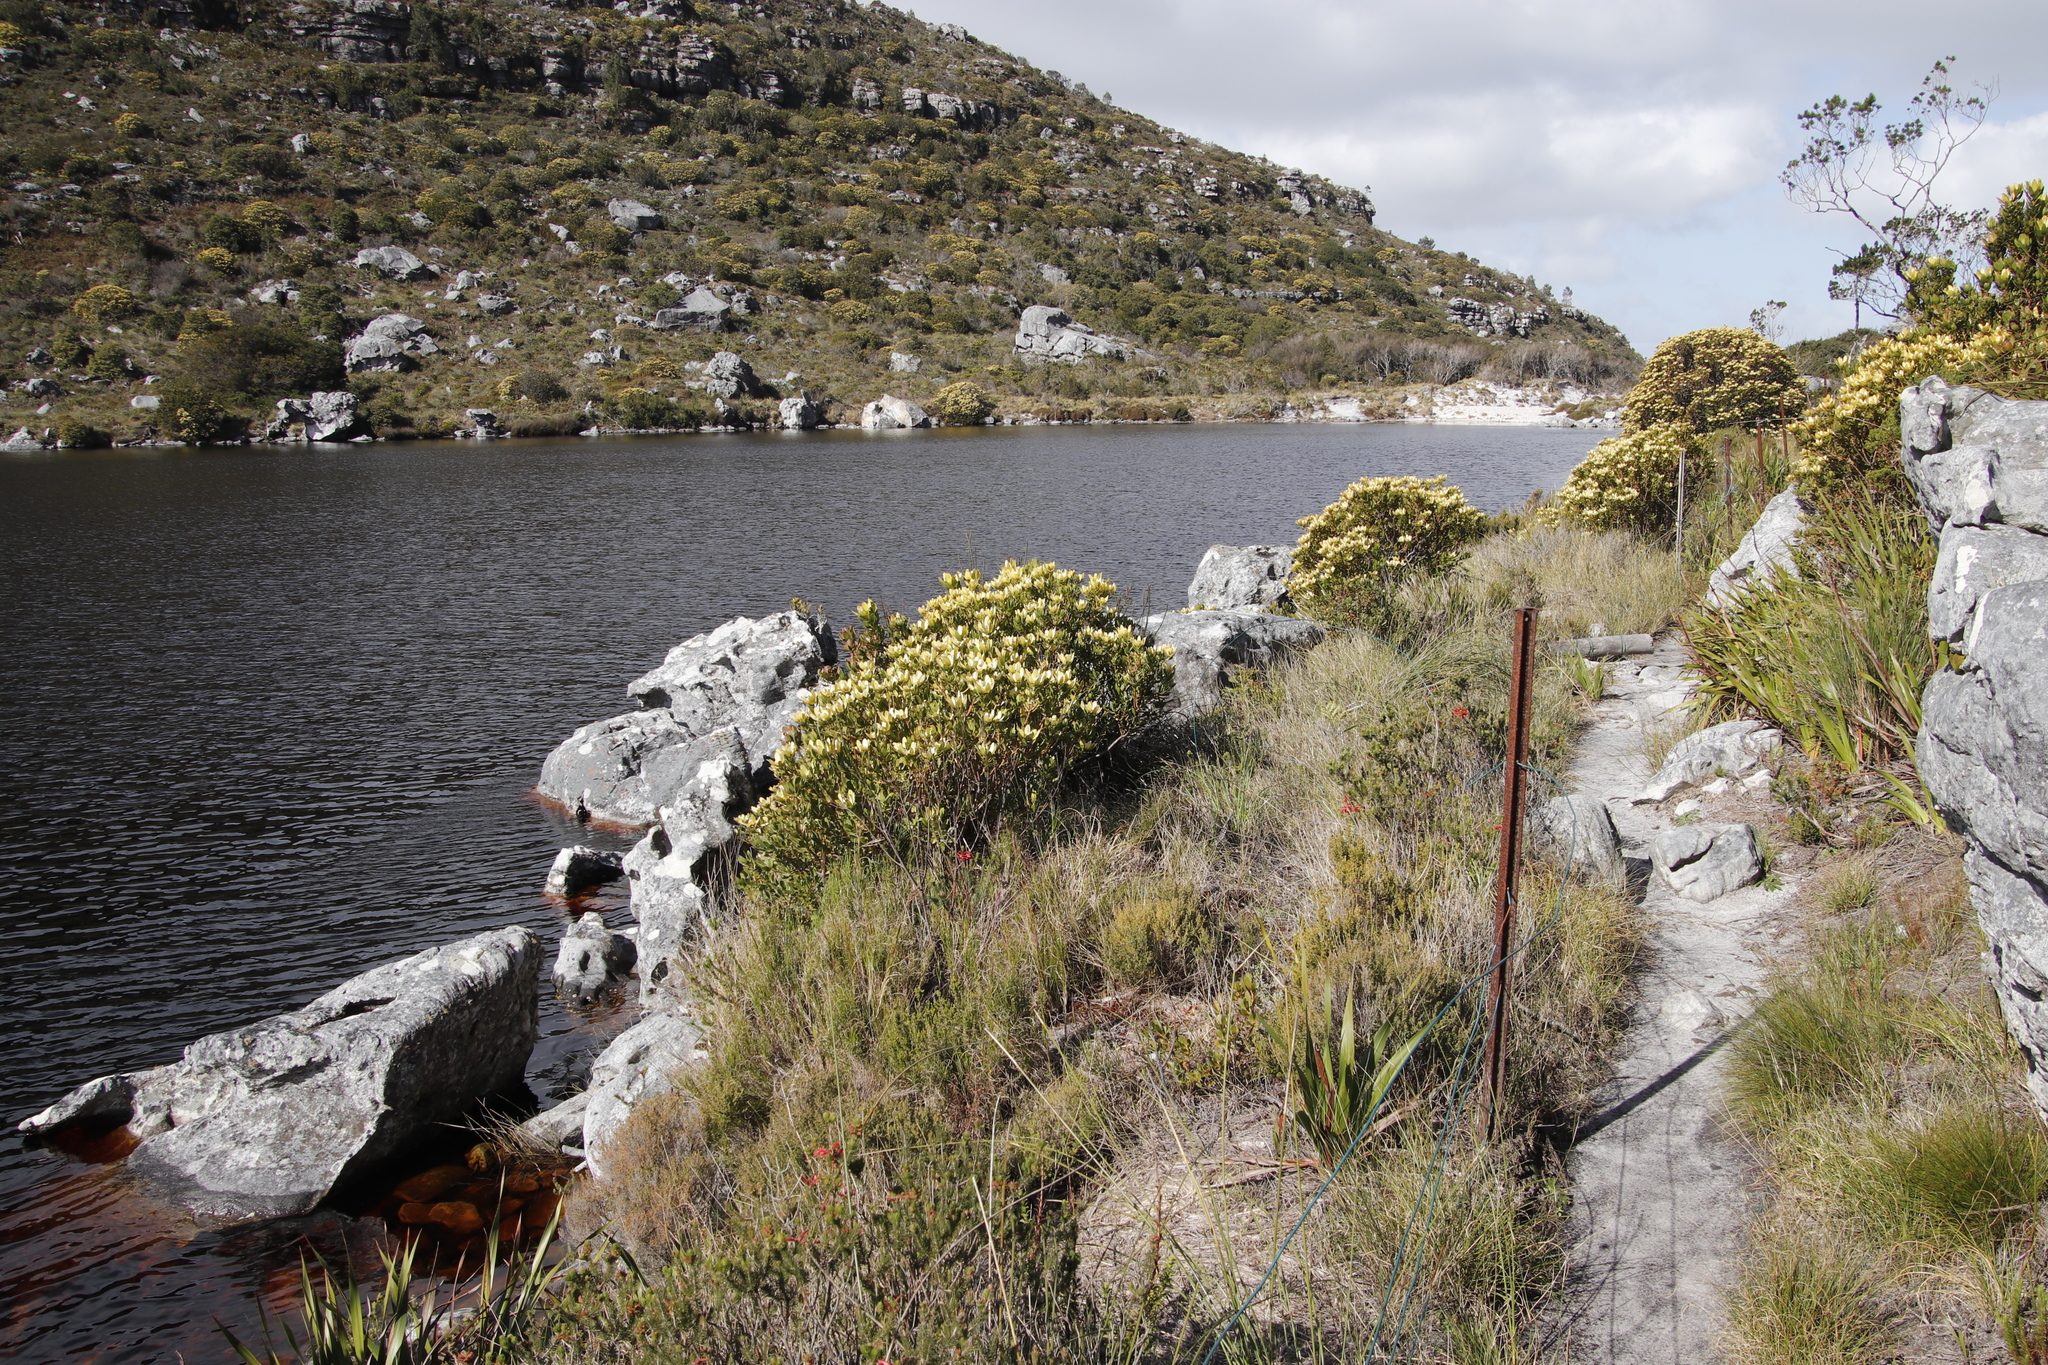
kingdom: Plantae
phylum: Tracheophyta
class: Magnoliopsida
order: Proteales
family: Proteaceae
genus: Leucadendron
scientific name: Leucadendron strobilinum
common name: Mountain rose
